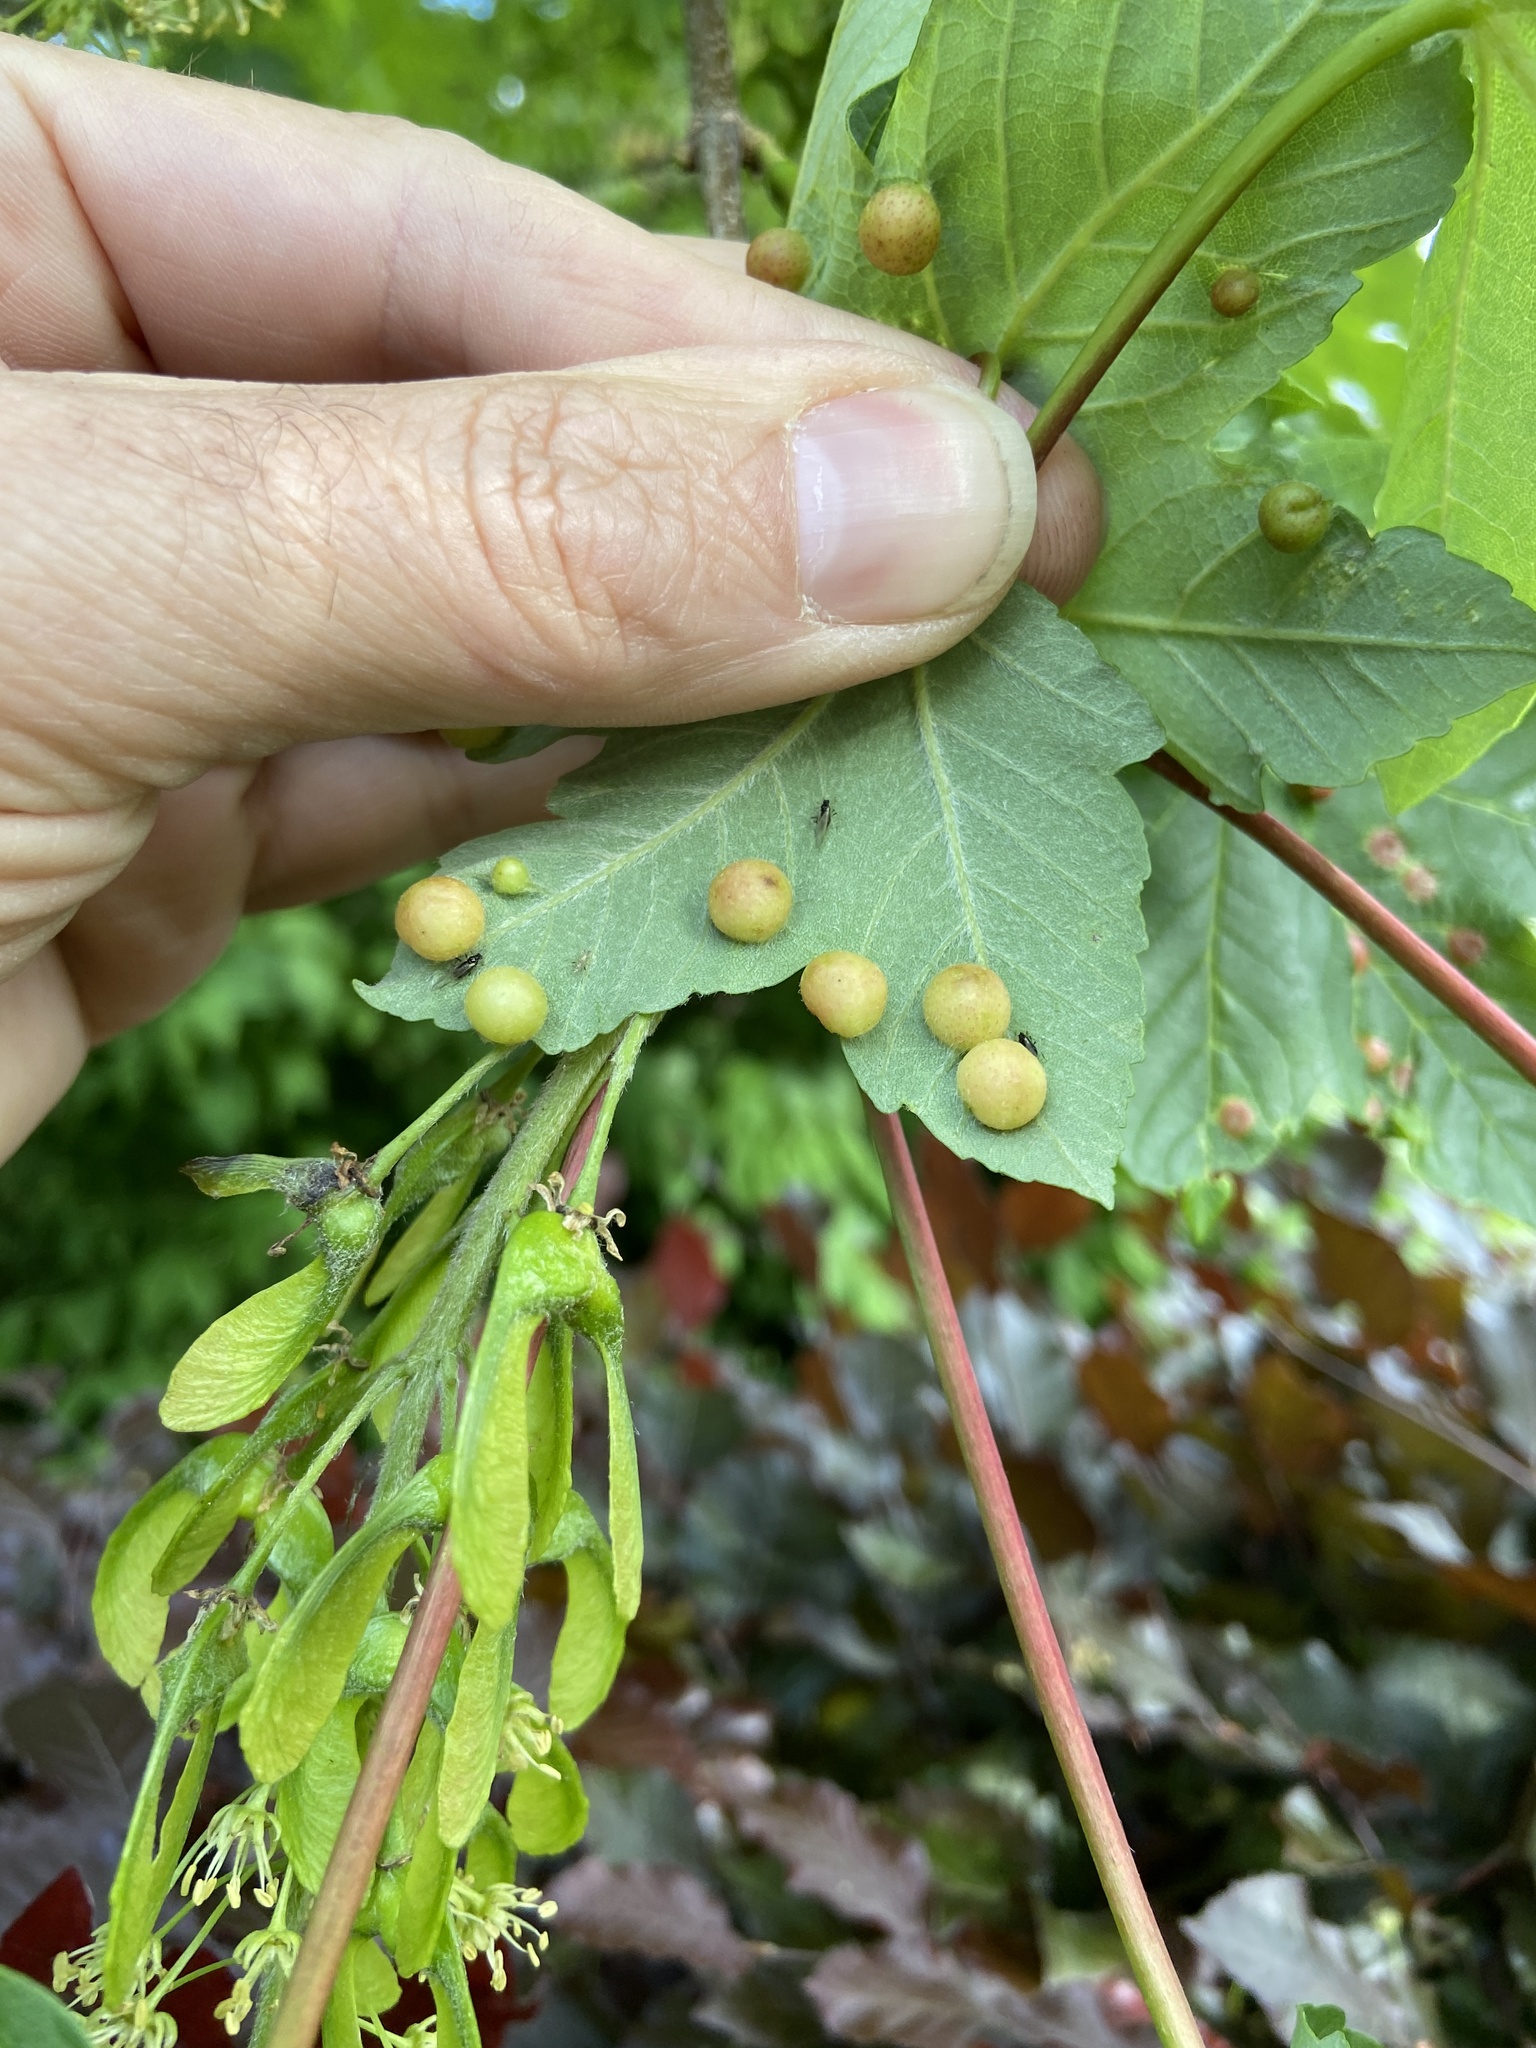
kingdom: Animalia
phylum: Arthropoda
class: Insecta
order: Hymenoptera
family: Cynipidae
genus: Pediaspis
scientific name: Pediaspis aceris
